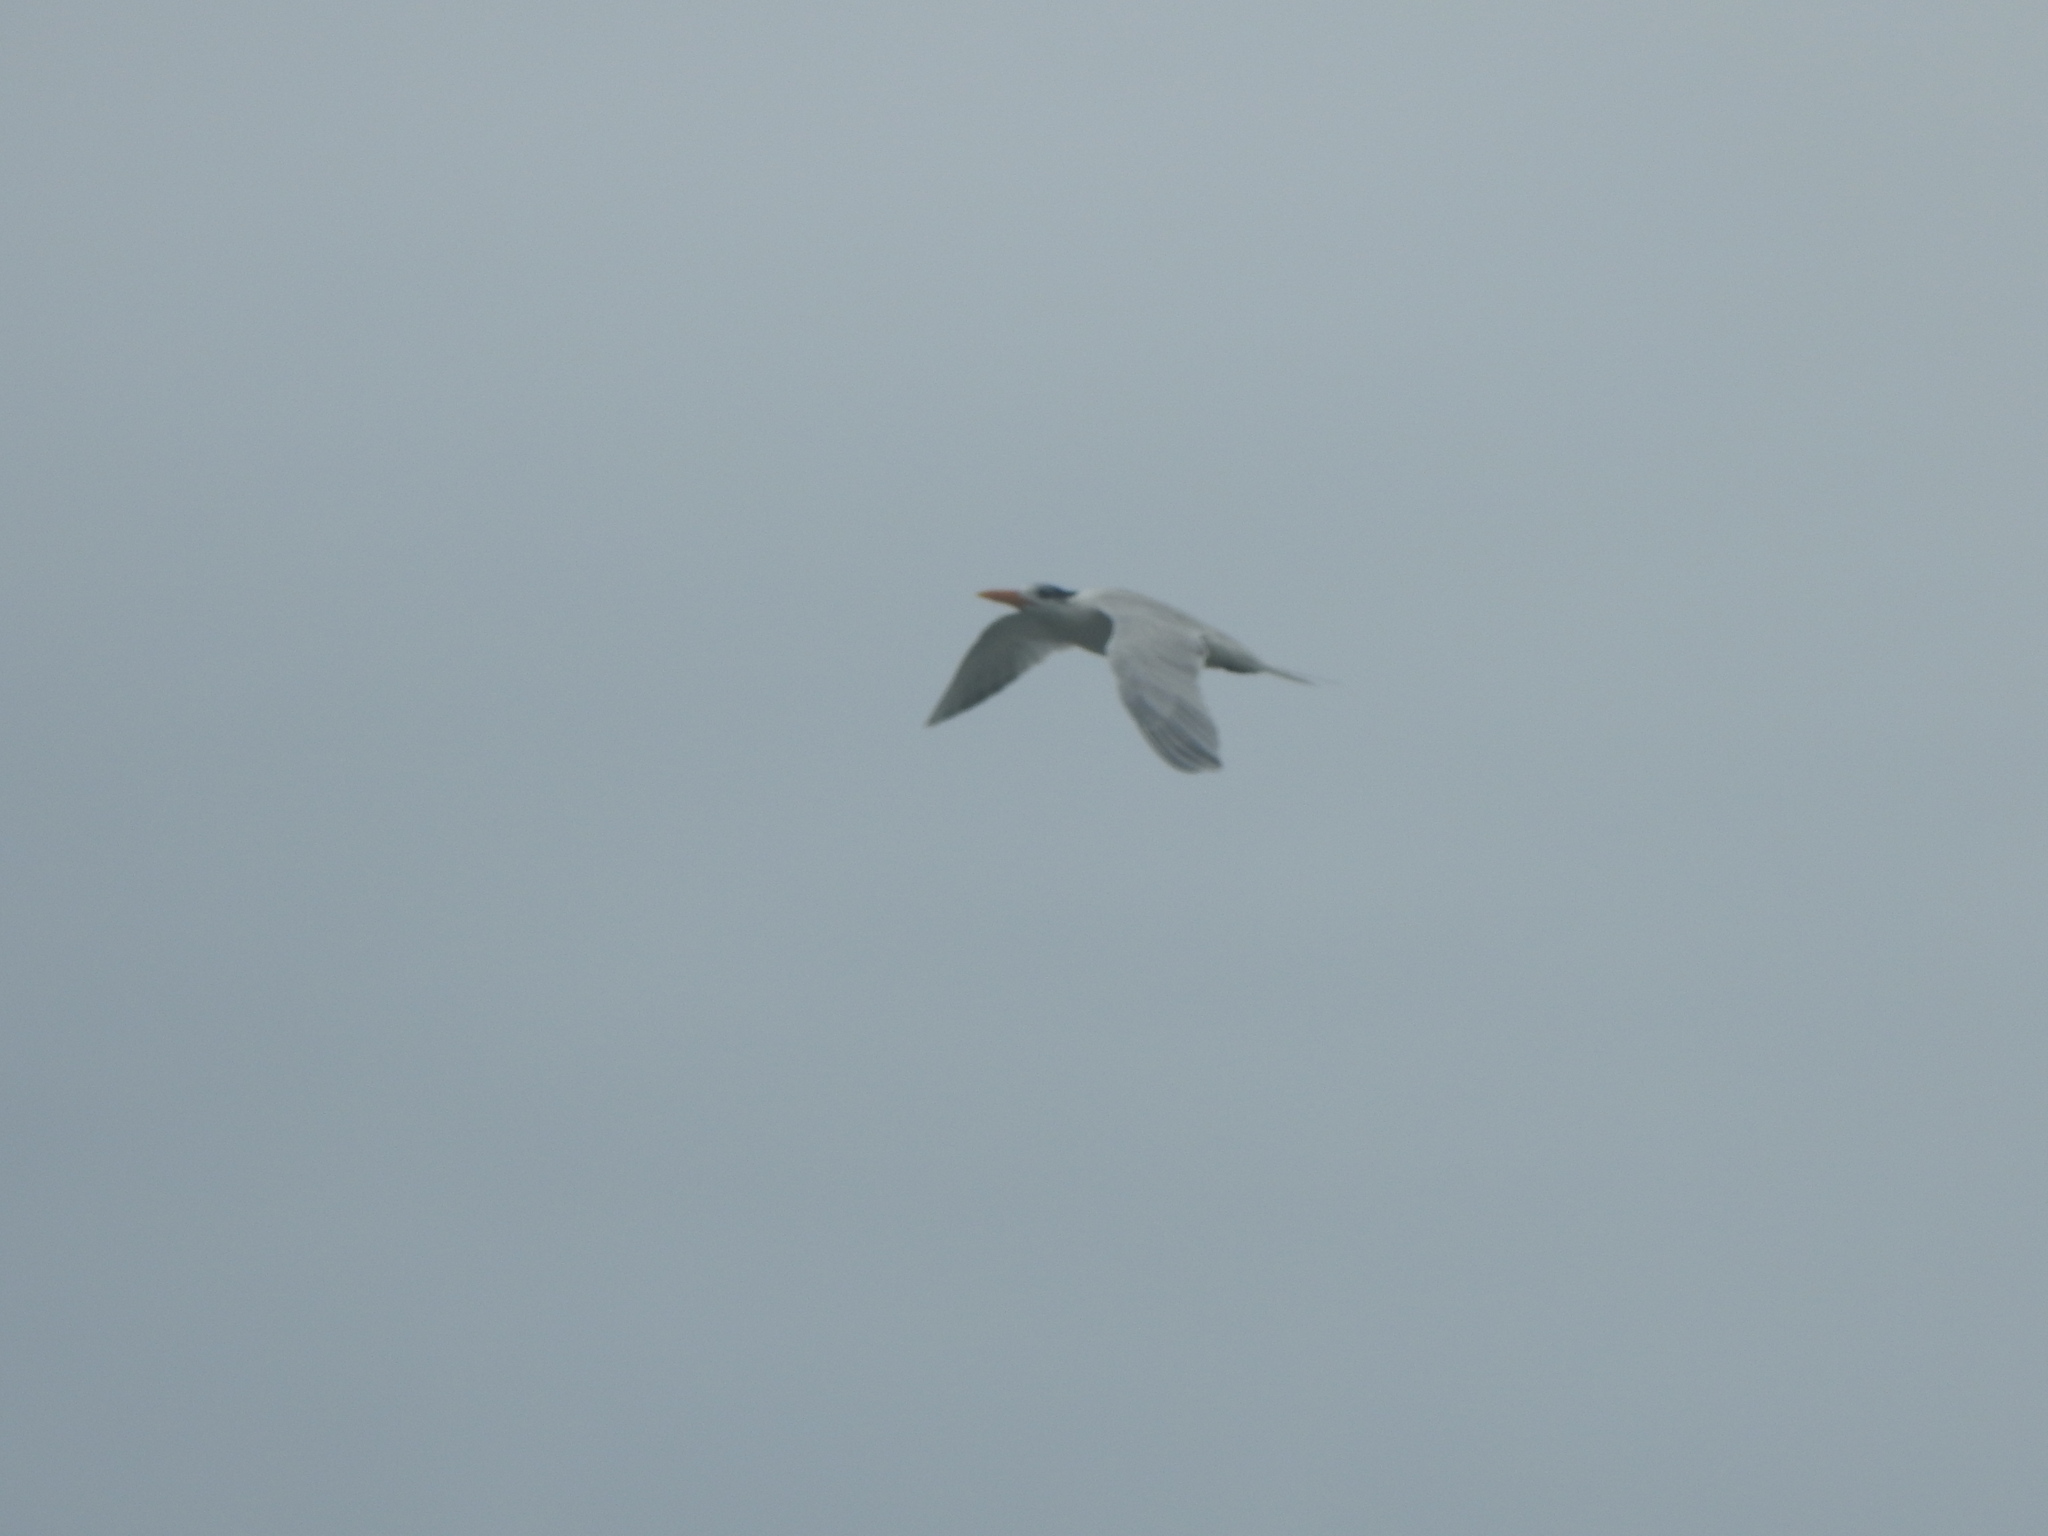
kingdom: Animalia
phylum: Chordata
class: Aves
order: Charadriiformes
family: Laridae
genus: Thalasseus
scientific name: Thalasseus maximus
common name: Royal tern
